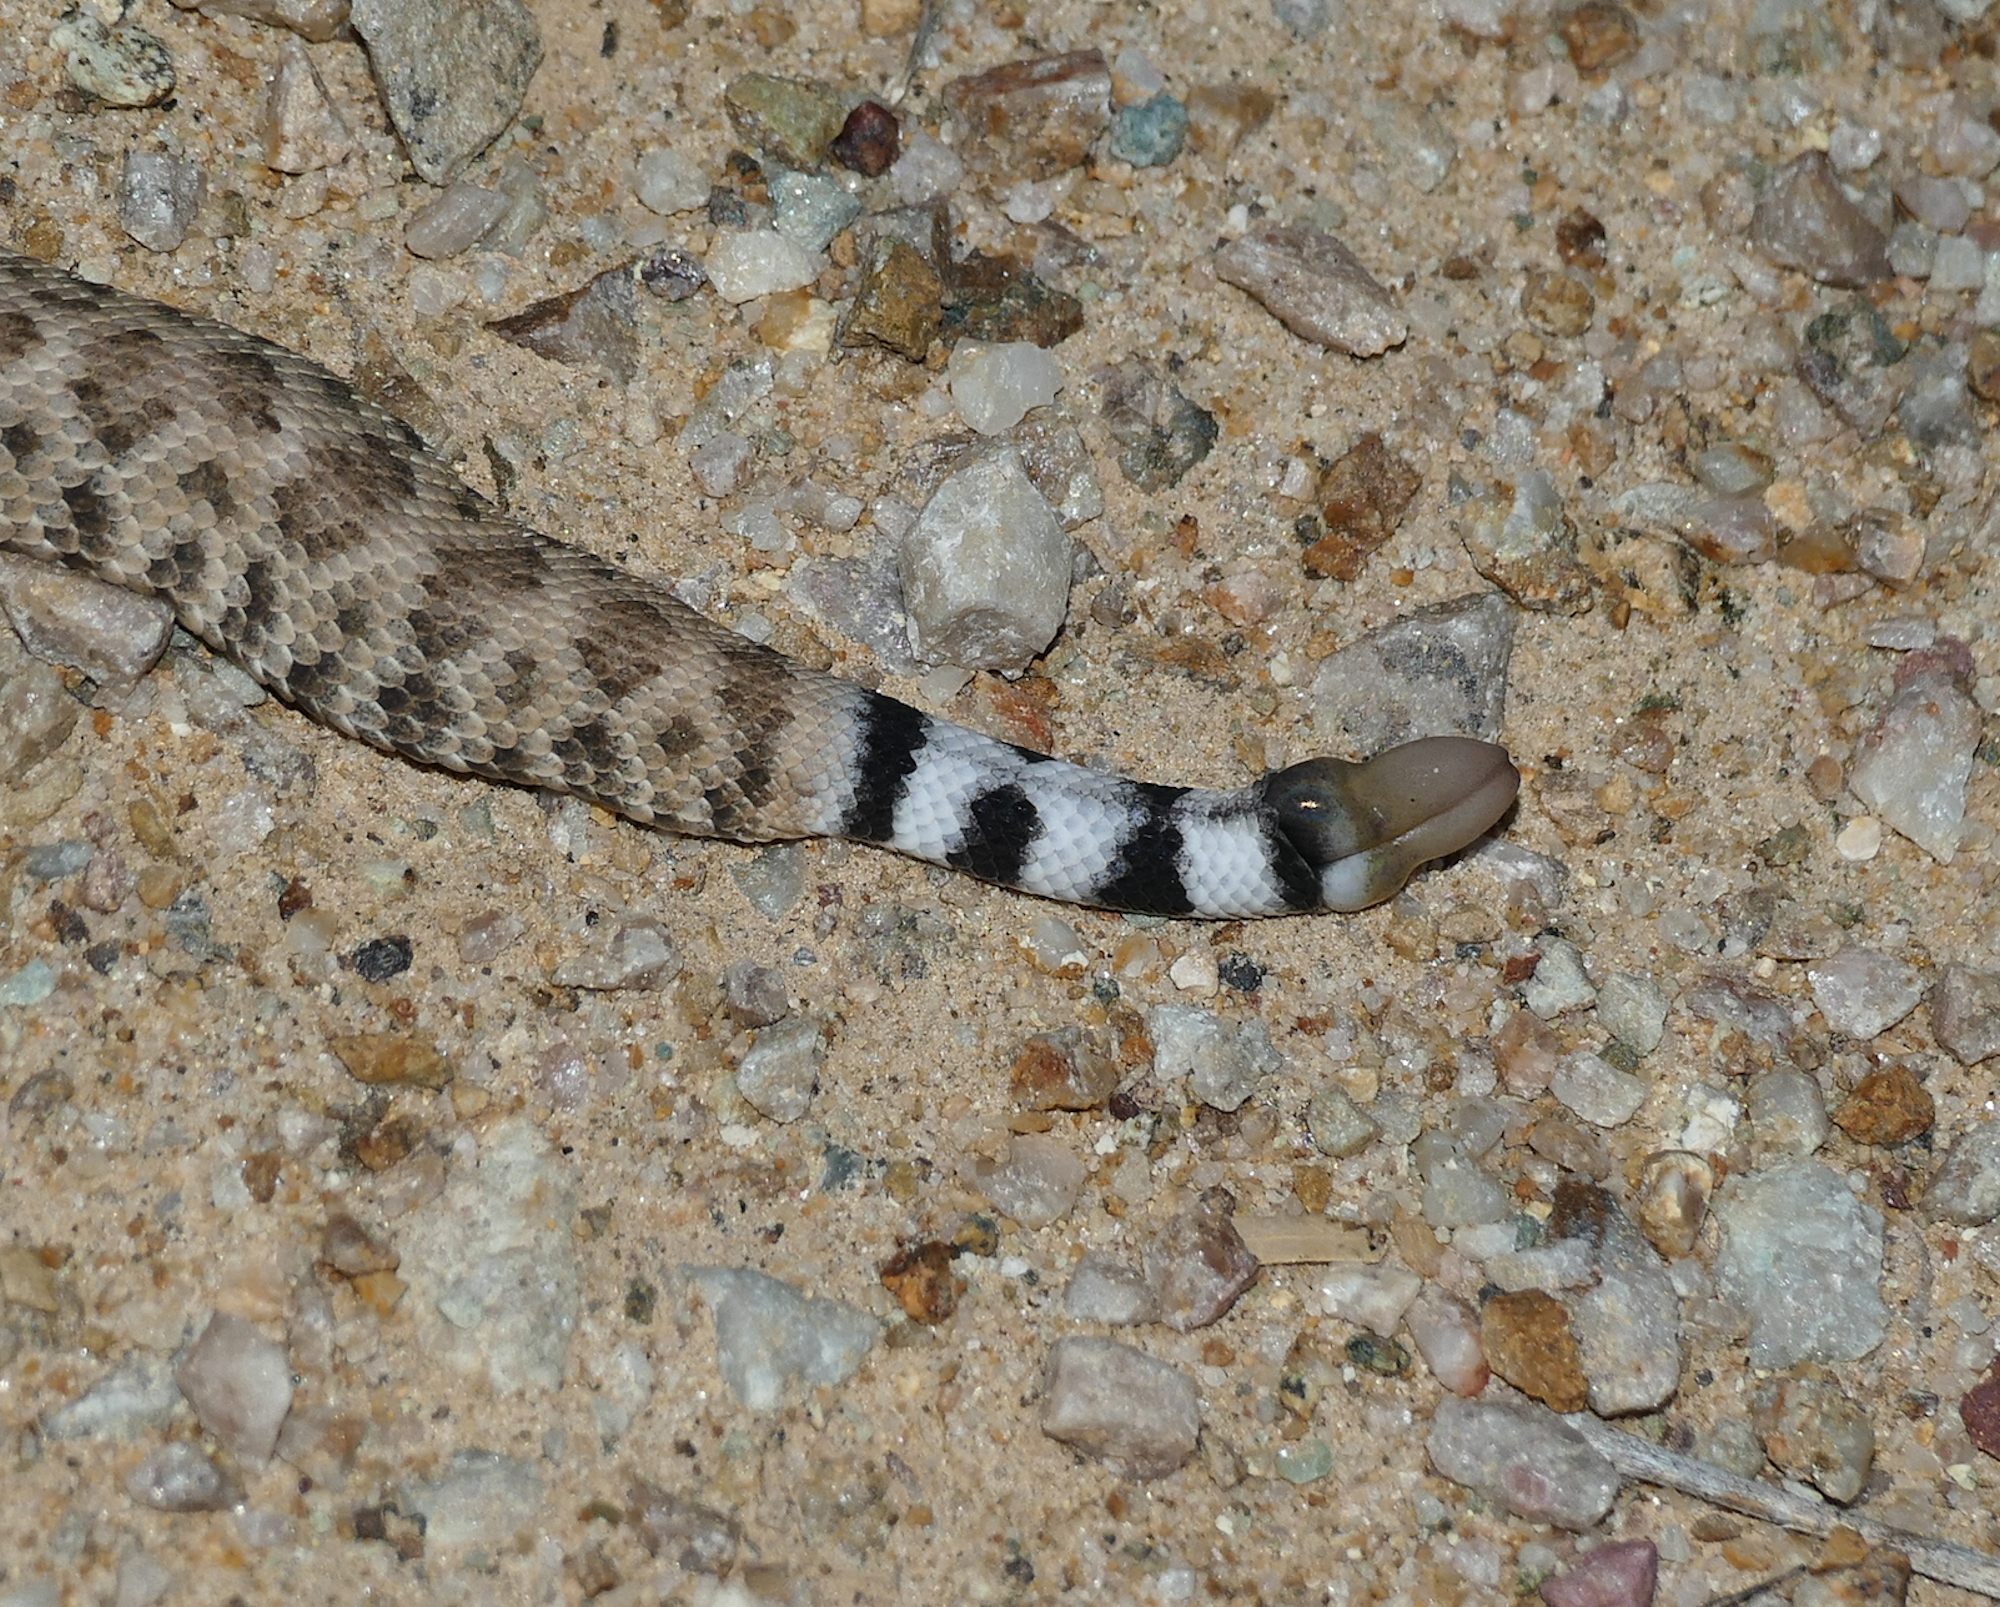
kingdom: Animalia
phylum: Chordata
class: Squamata
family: Viperidae
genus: Crotalus
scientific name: Crotalus atrox
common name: Western diamond-backed rattlesnake
